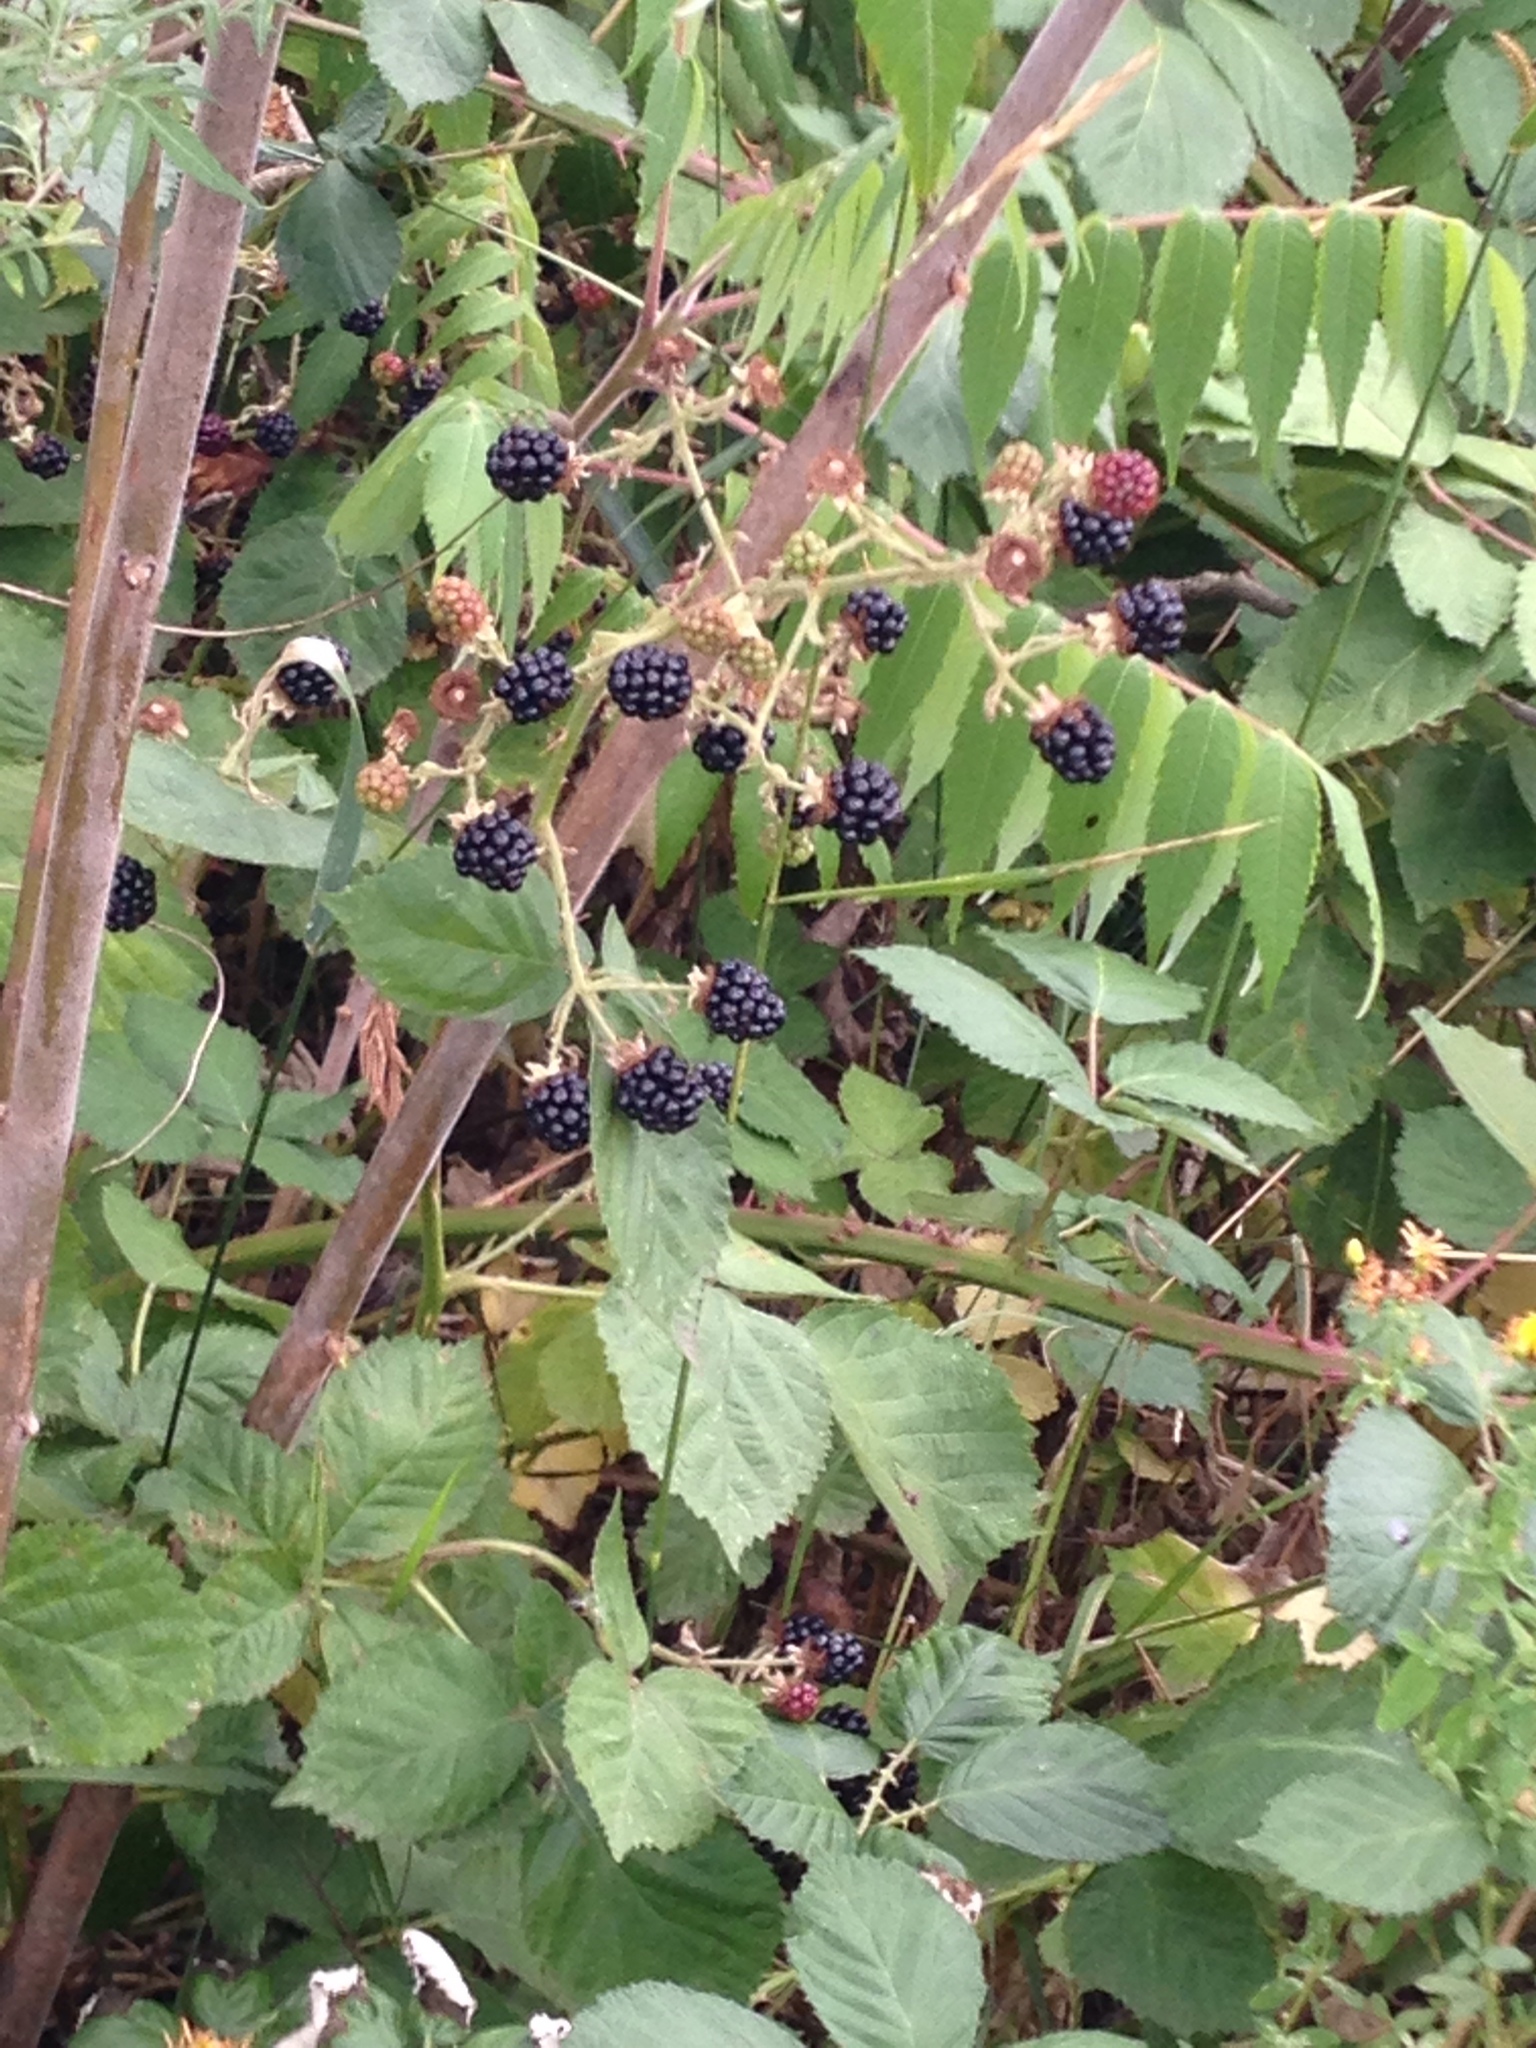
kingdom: Plantae
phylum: Tracheophyta
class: Magnoliopsida
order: Rosales
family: Rosaceae
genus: Rubus
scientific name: Rubus armeniacus
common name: Himalayan blackberry
